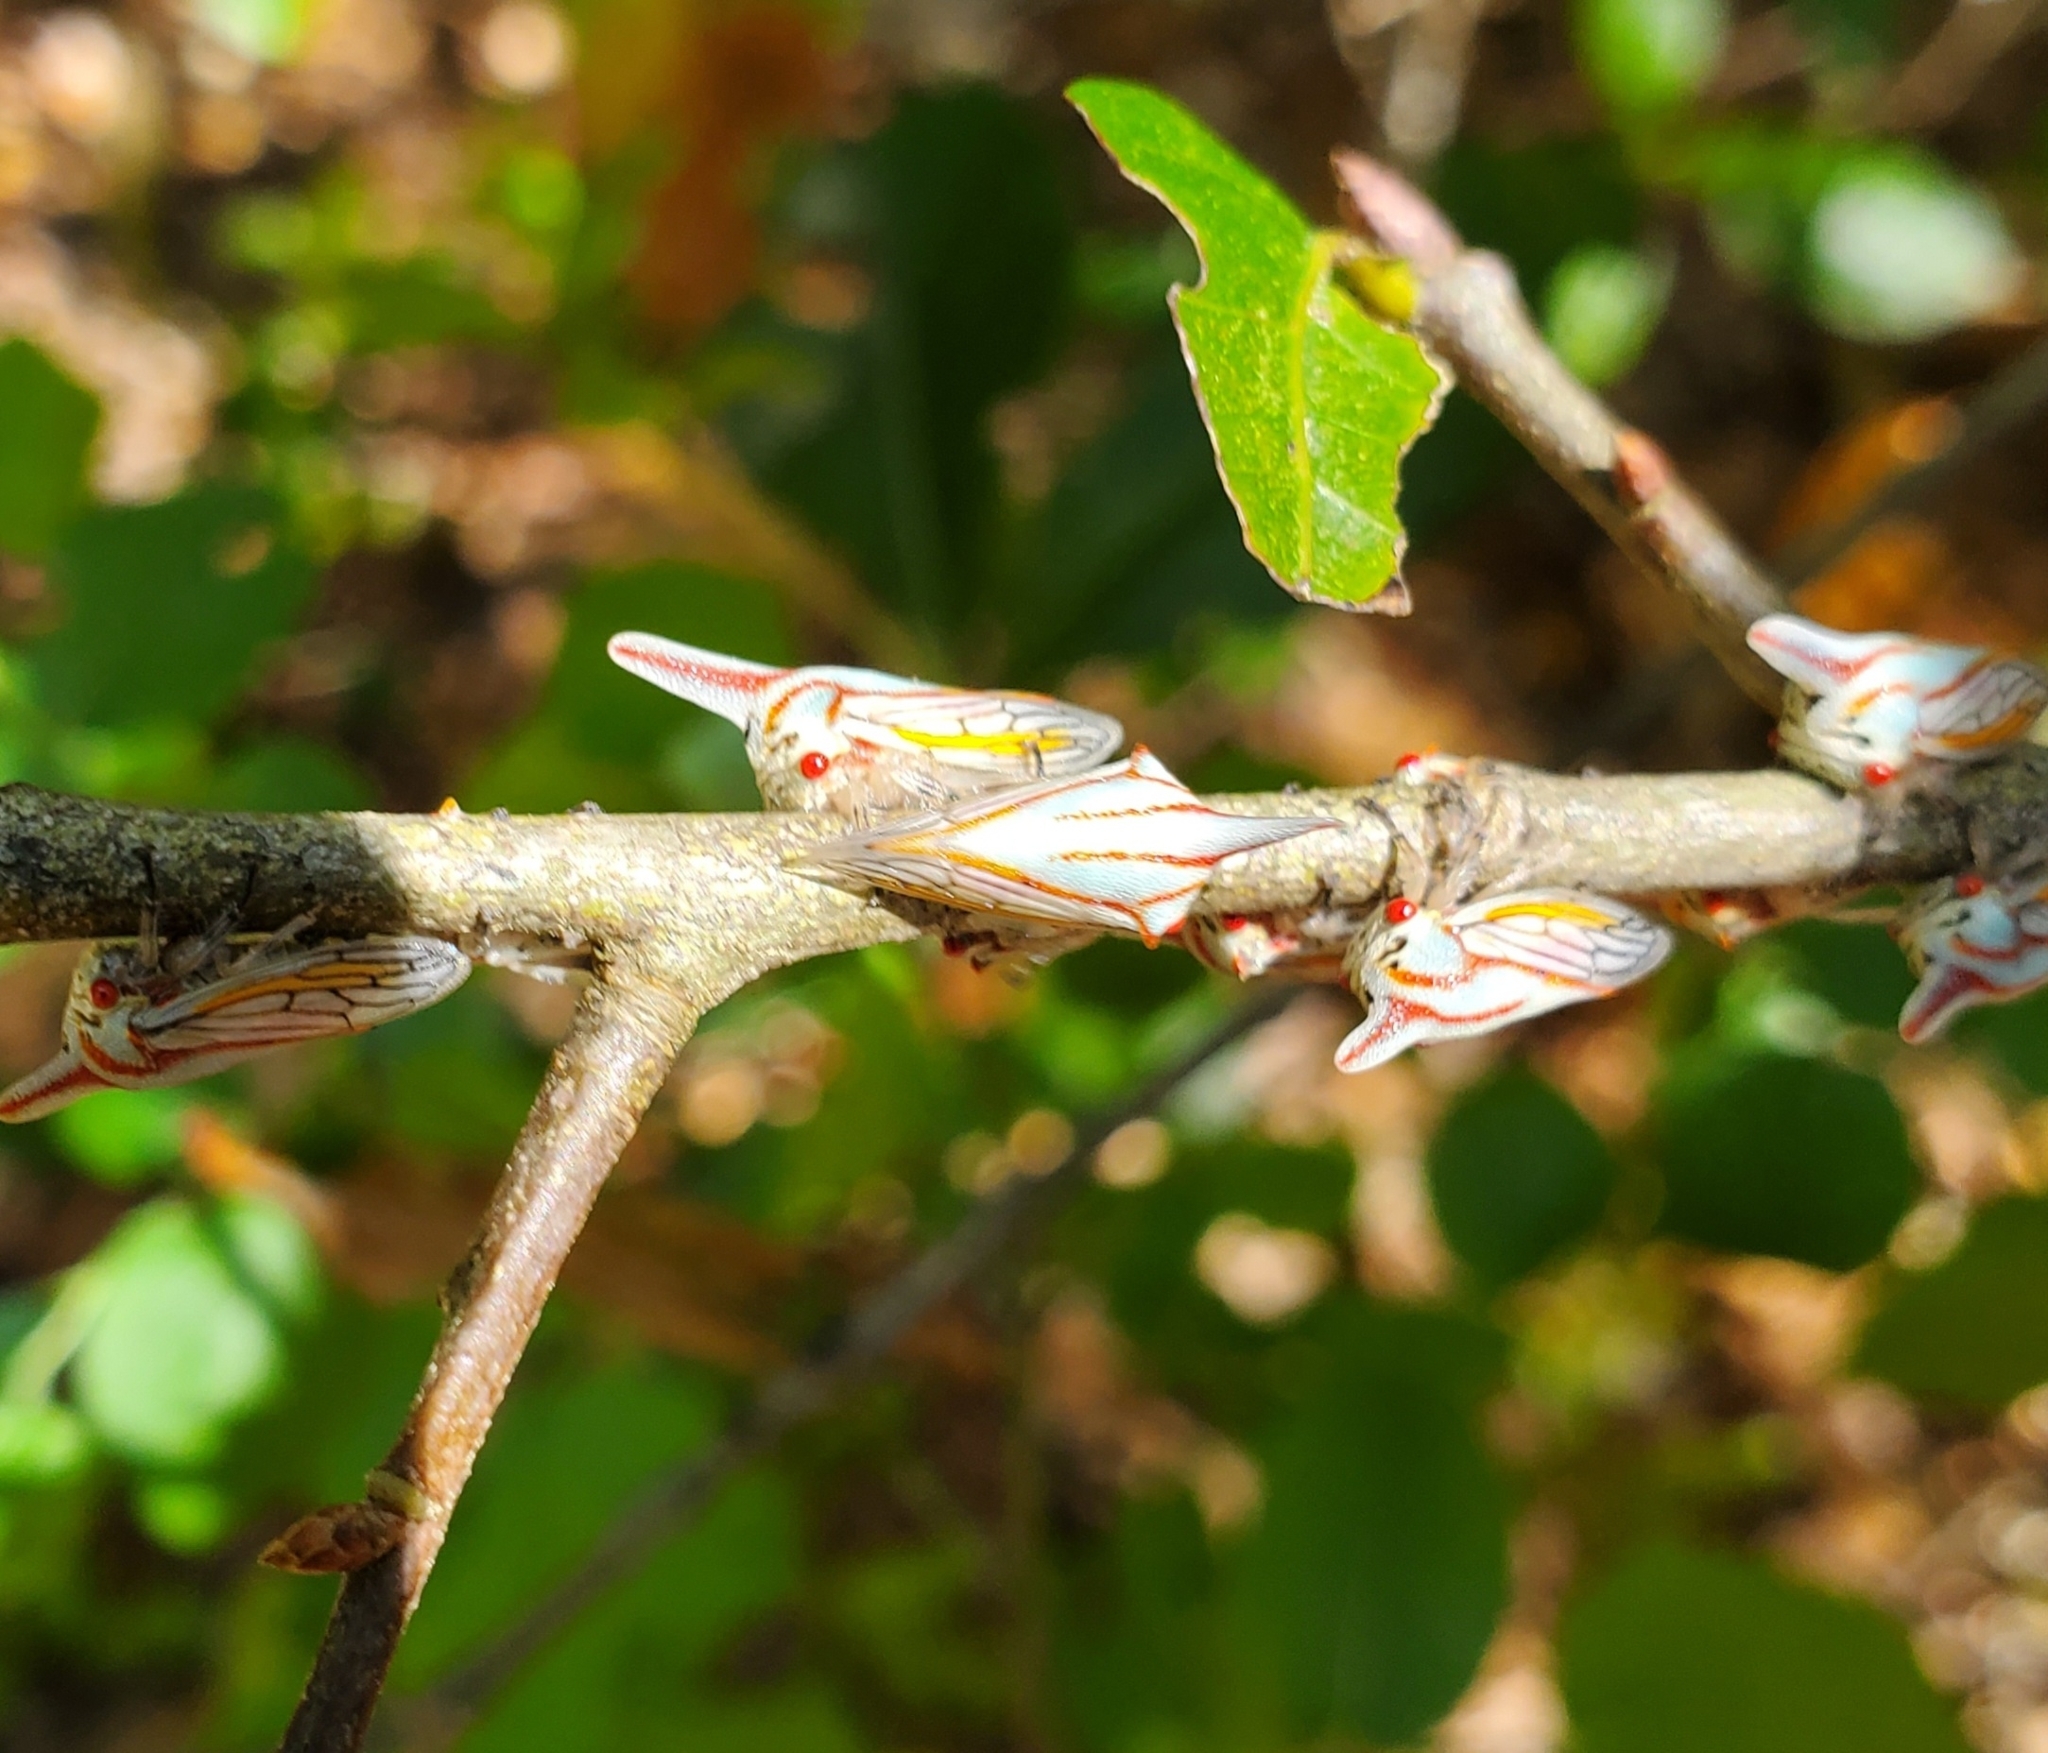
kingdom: Animalia
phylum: Arthropoda
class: Insecta
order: Hemiptera
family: Membracidae
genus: Platycotis
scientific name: Platycotis vittatus
